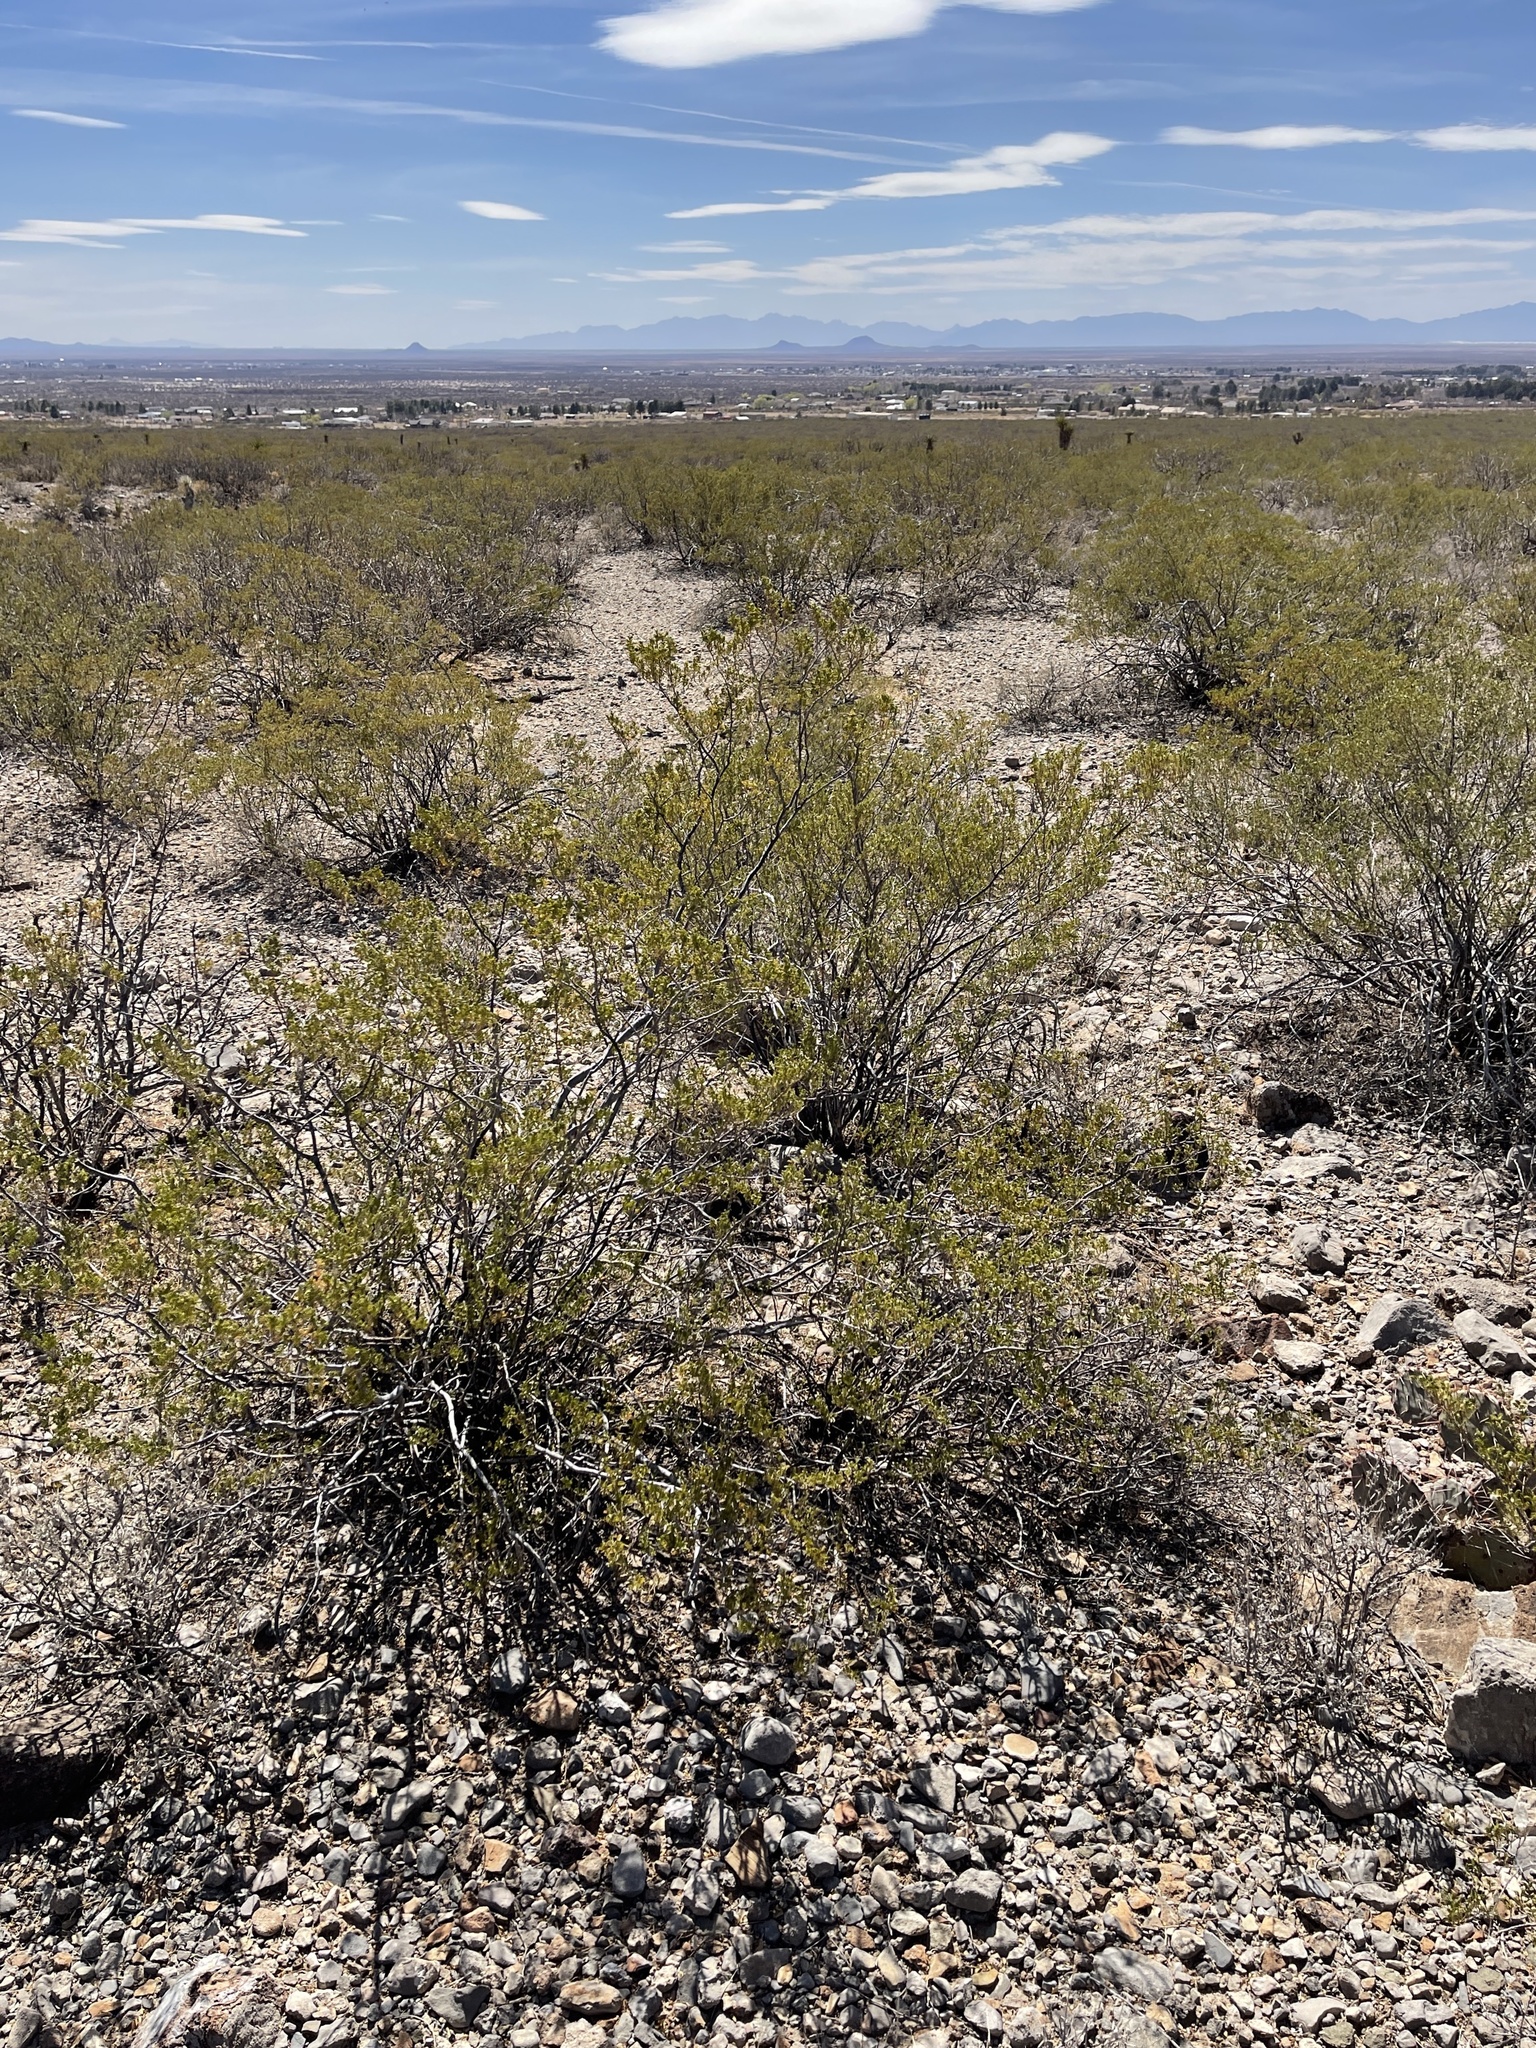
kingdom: Plantae
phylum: Tracheophyta
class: Magnoliopsida
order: Zygophyllales
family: Zygophyllaceae
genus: Larrea
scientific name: Larrea tridentata
